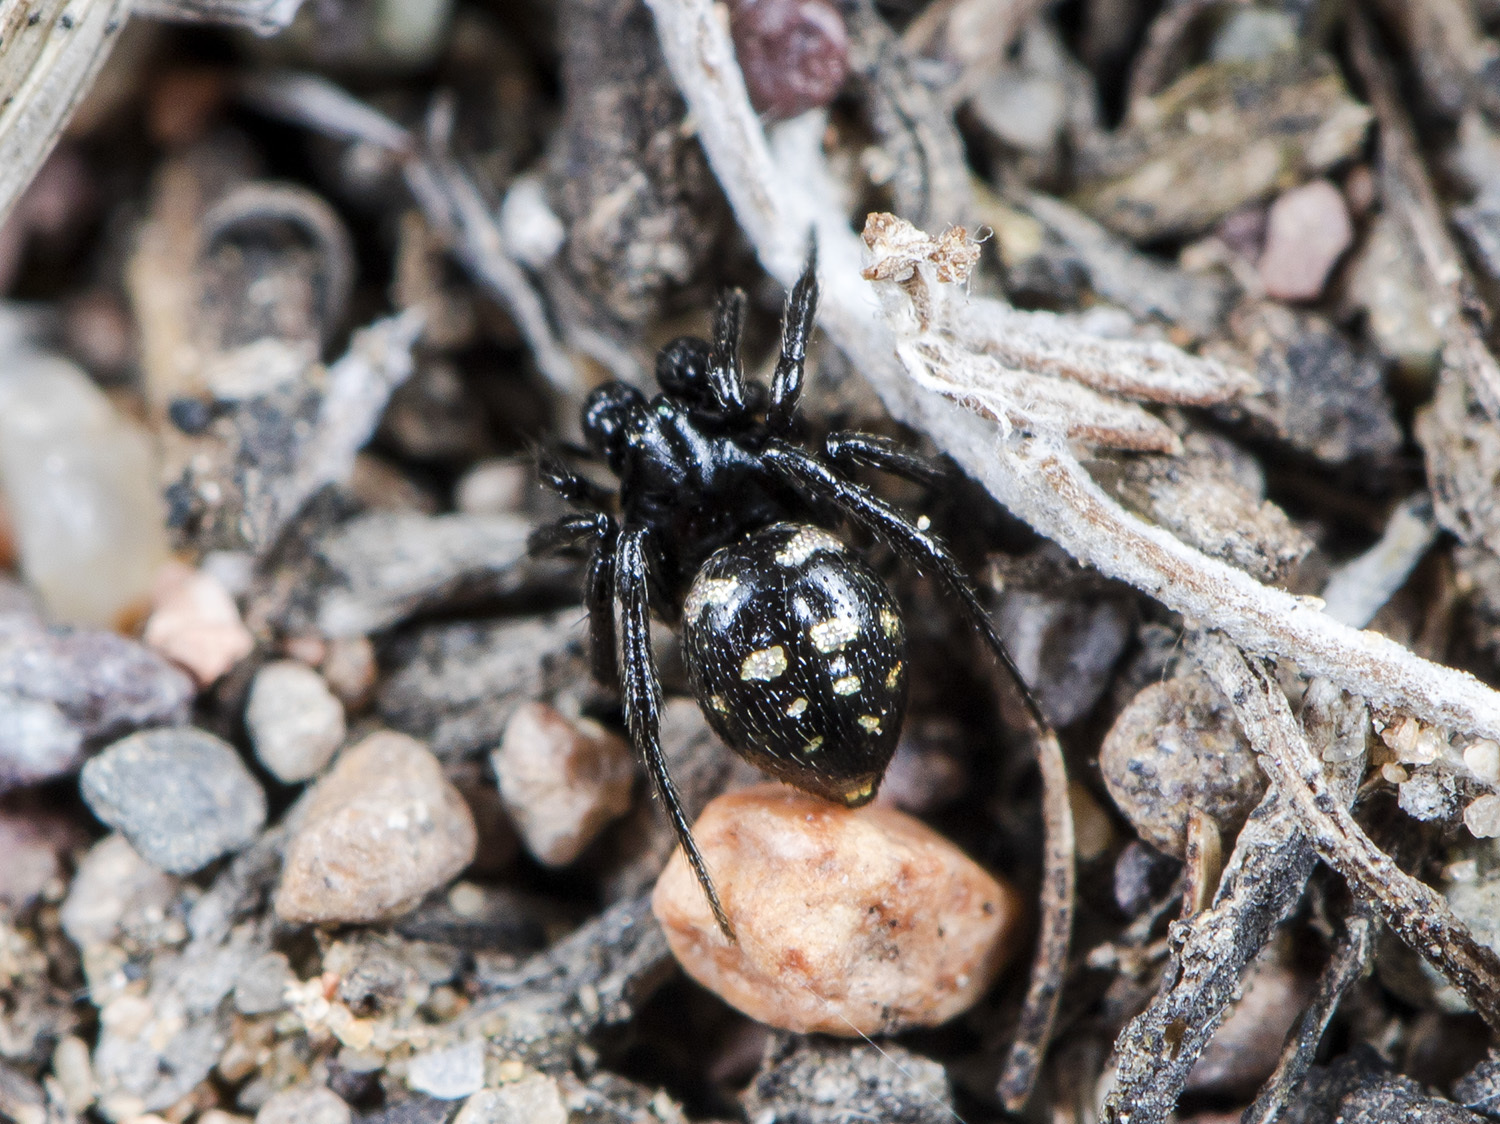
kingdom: Animalia
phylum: Arthropoda
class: Arachnida
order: Araneae
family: Theridiidae
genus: Euryopis
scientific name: Euryopis saukea
